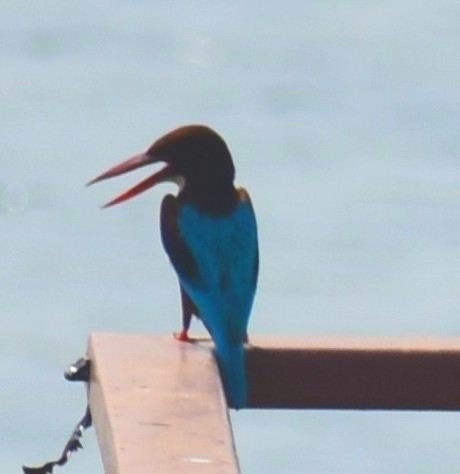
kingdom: Animalia
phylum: Chordata
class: Aves
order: Coraciiformes
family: Alcedinidae
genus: Halcyon
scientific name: Halcyon smyrnensis
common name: White-throated kingfisher
